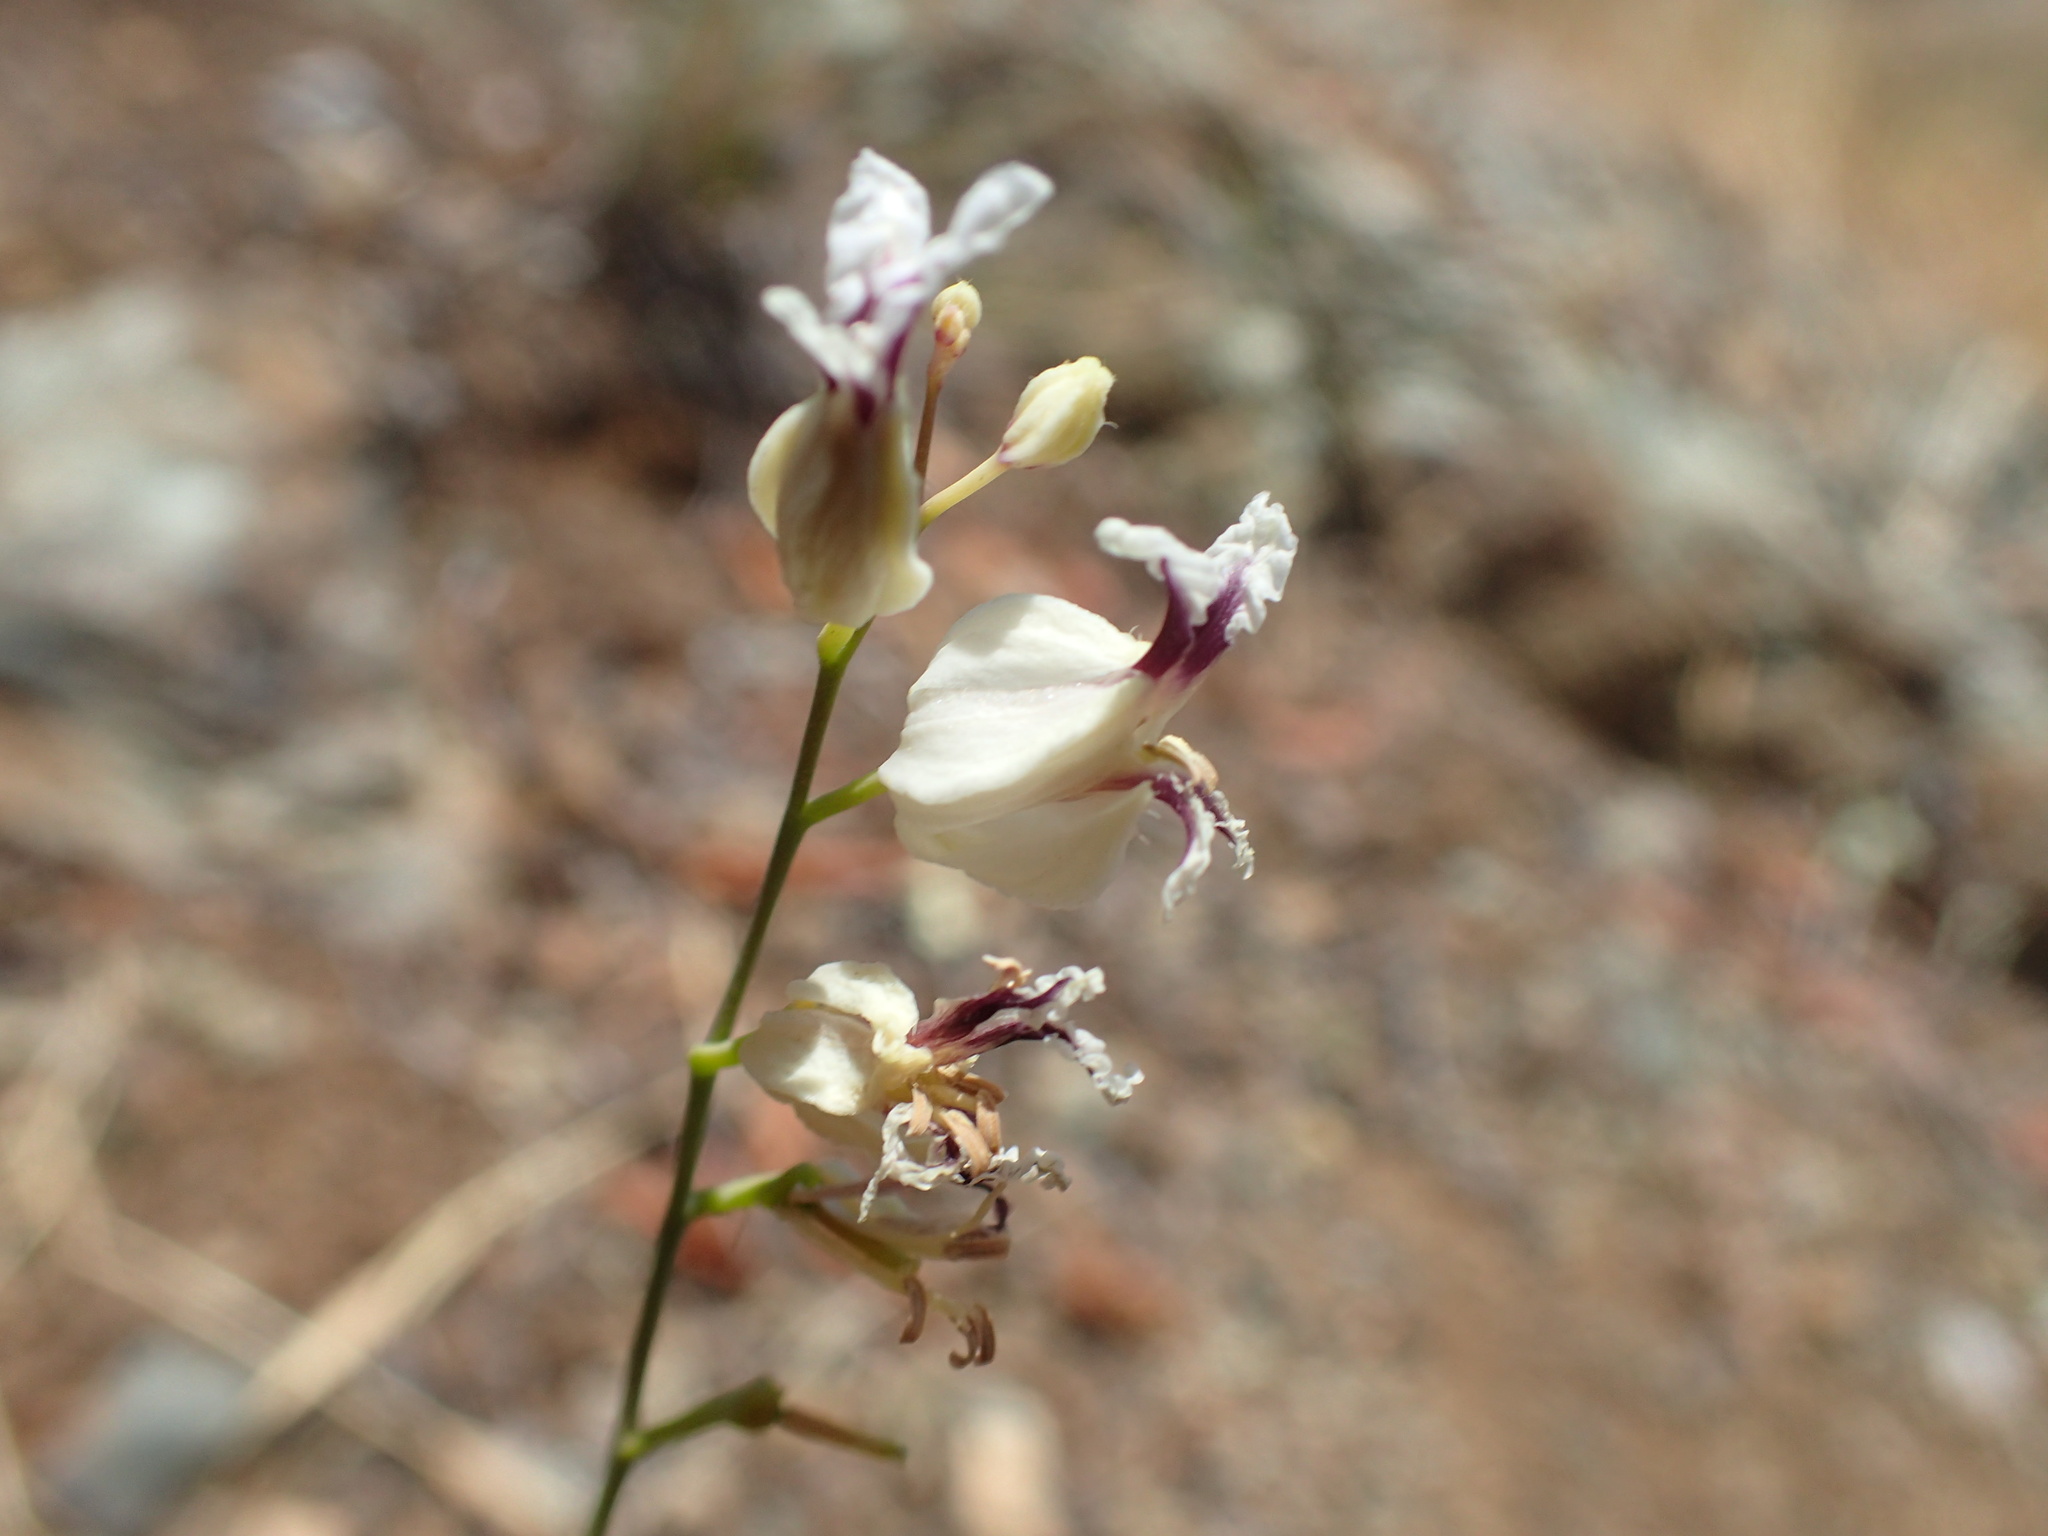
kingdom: Plantae
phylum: Tracheophyta
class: Magnoliopsida
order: Brassicales
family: Brassicaceae
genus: Streptanthus
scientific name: Streptanthus glandulosus
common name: Jewel-flower
